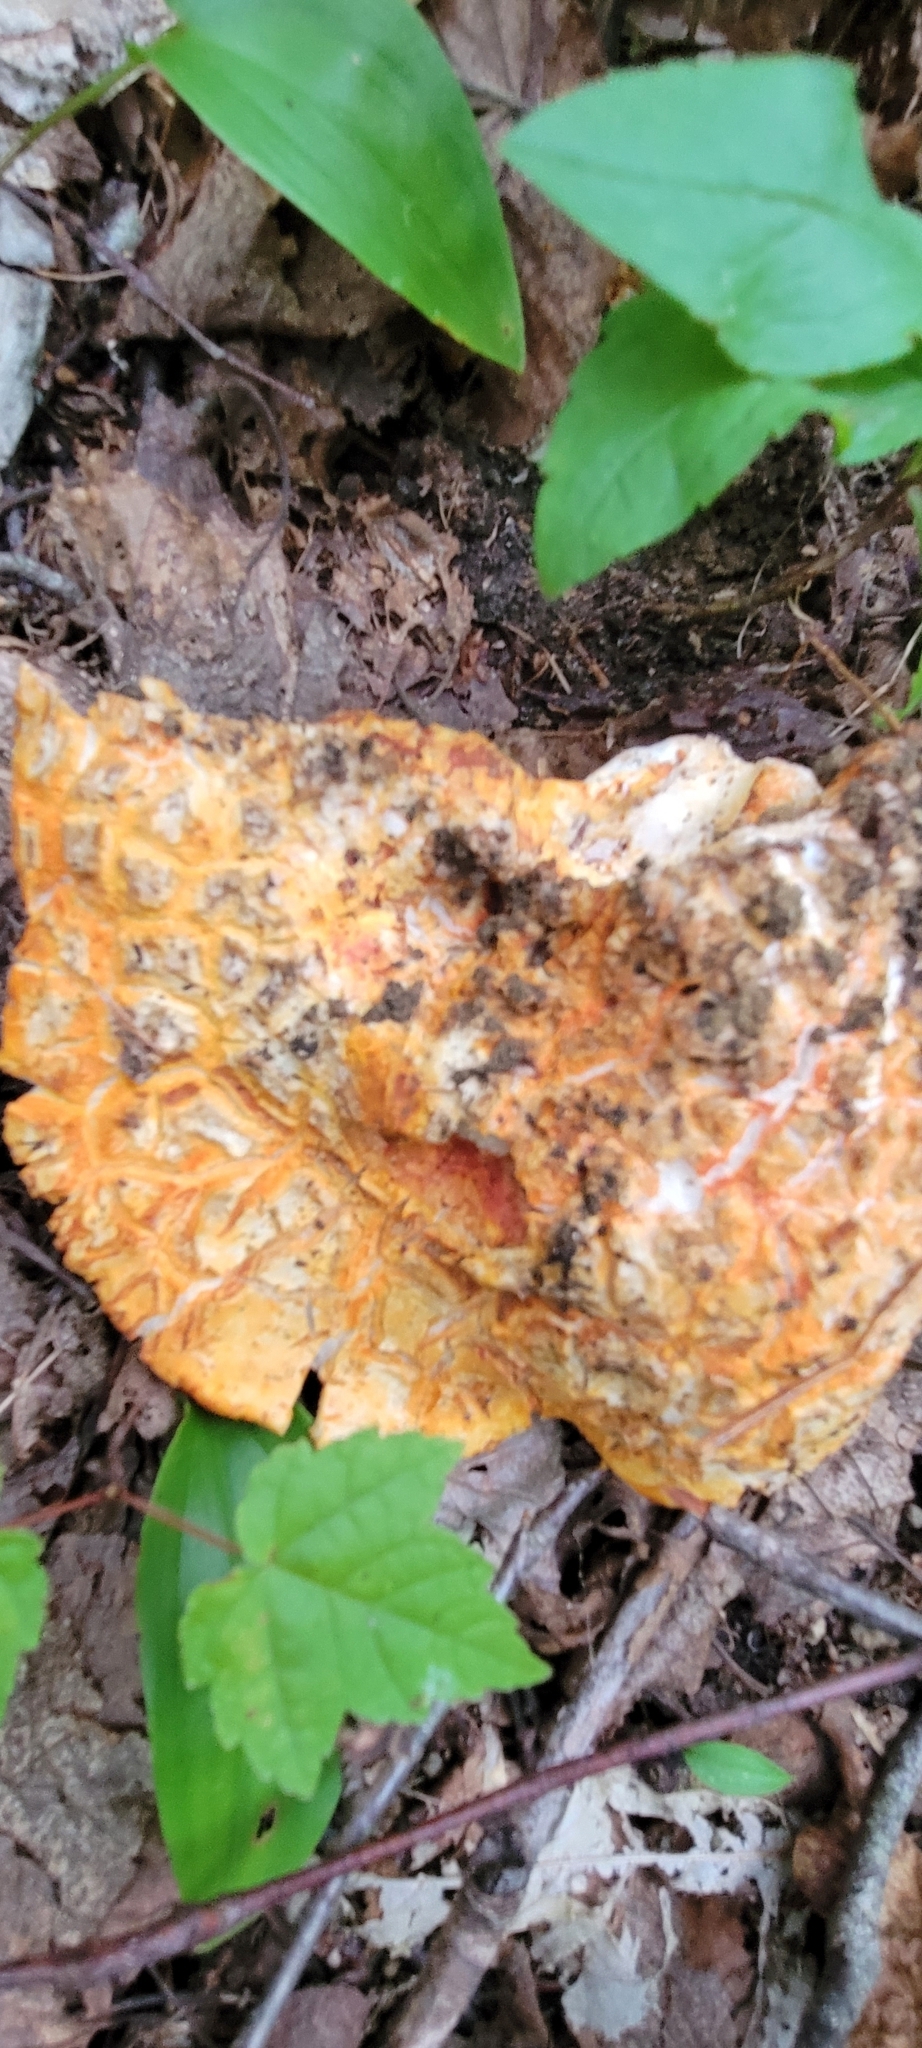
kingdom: Fungi
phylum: Ascomycota
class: Sordariomycetes
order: Hypocreales
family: Hypocreaceae
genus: Hypomyces
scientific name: Hypomyces lactifluorum
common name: Lobster mushroom
